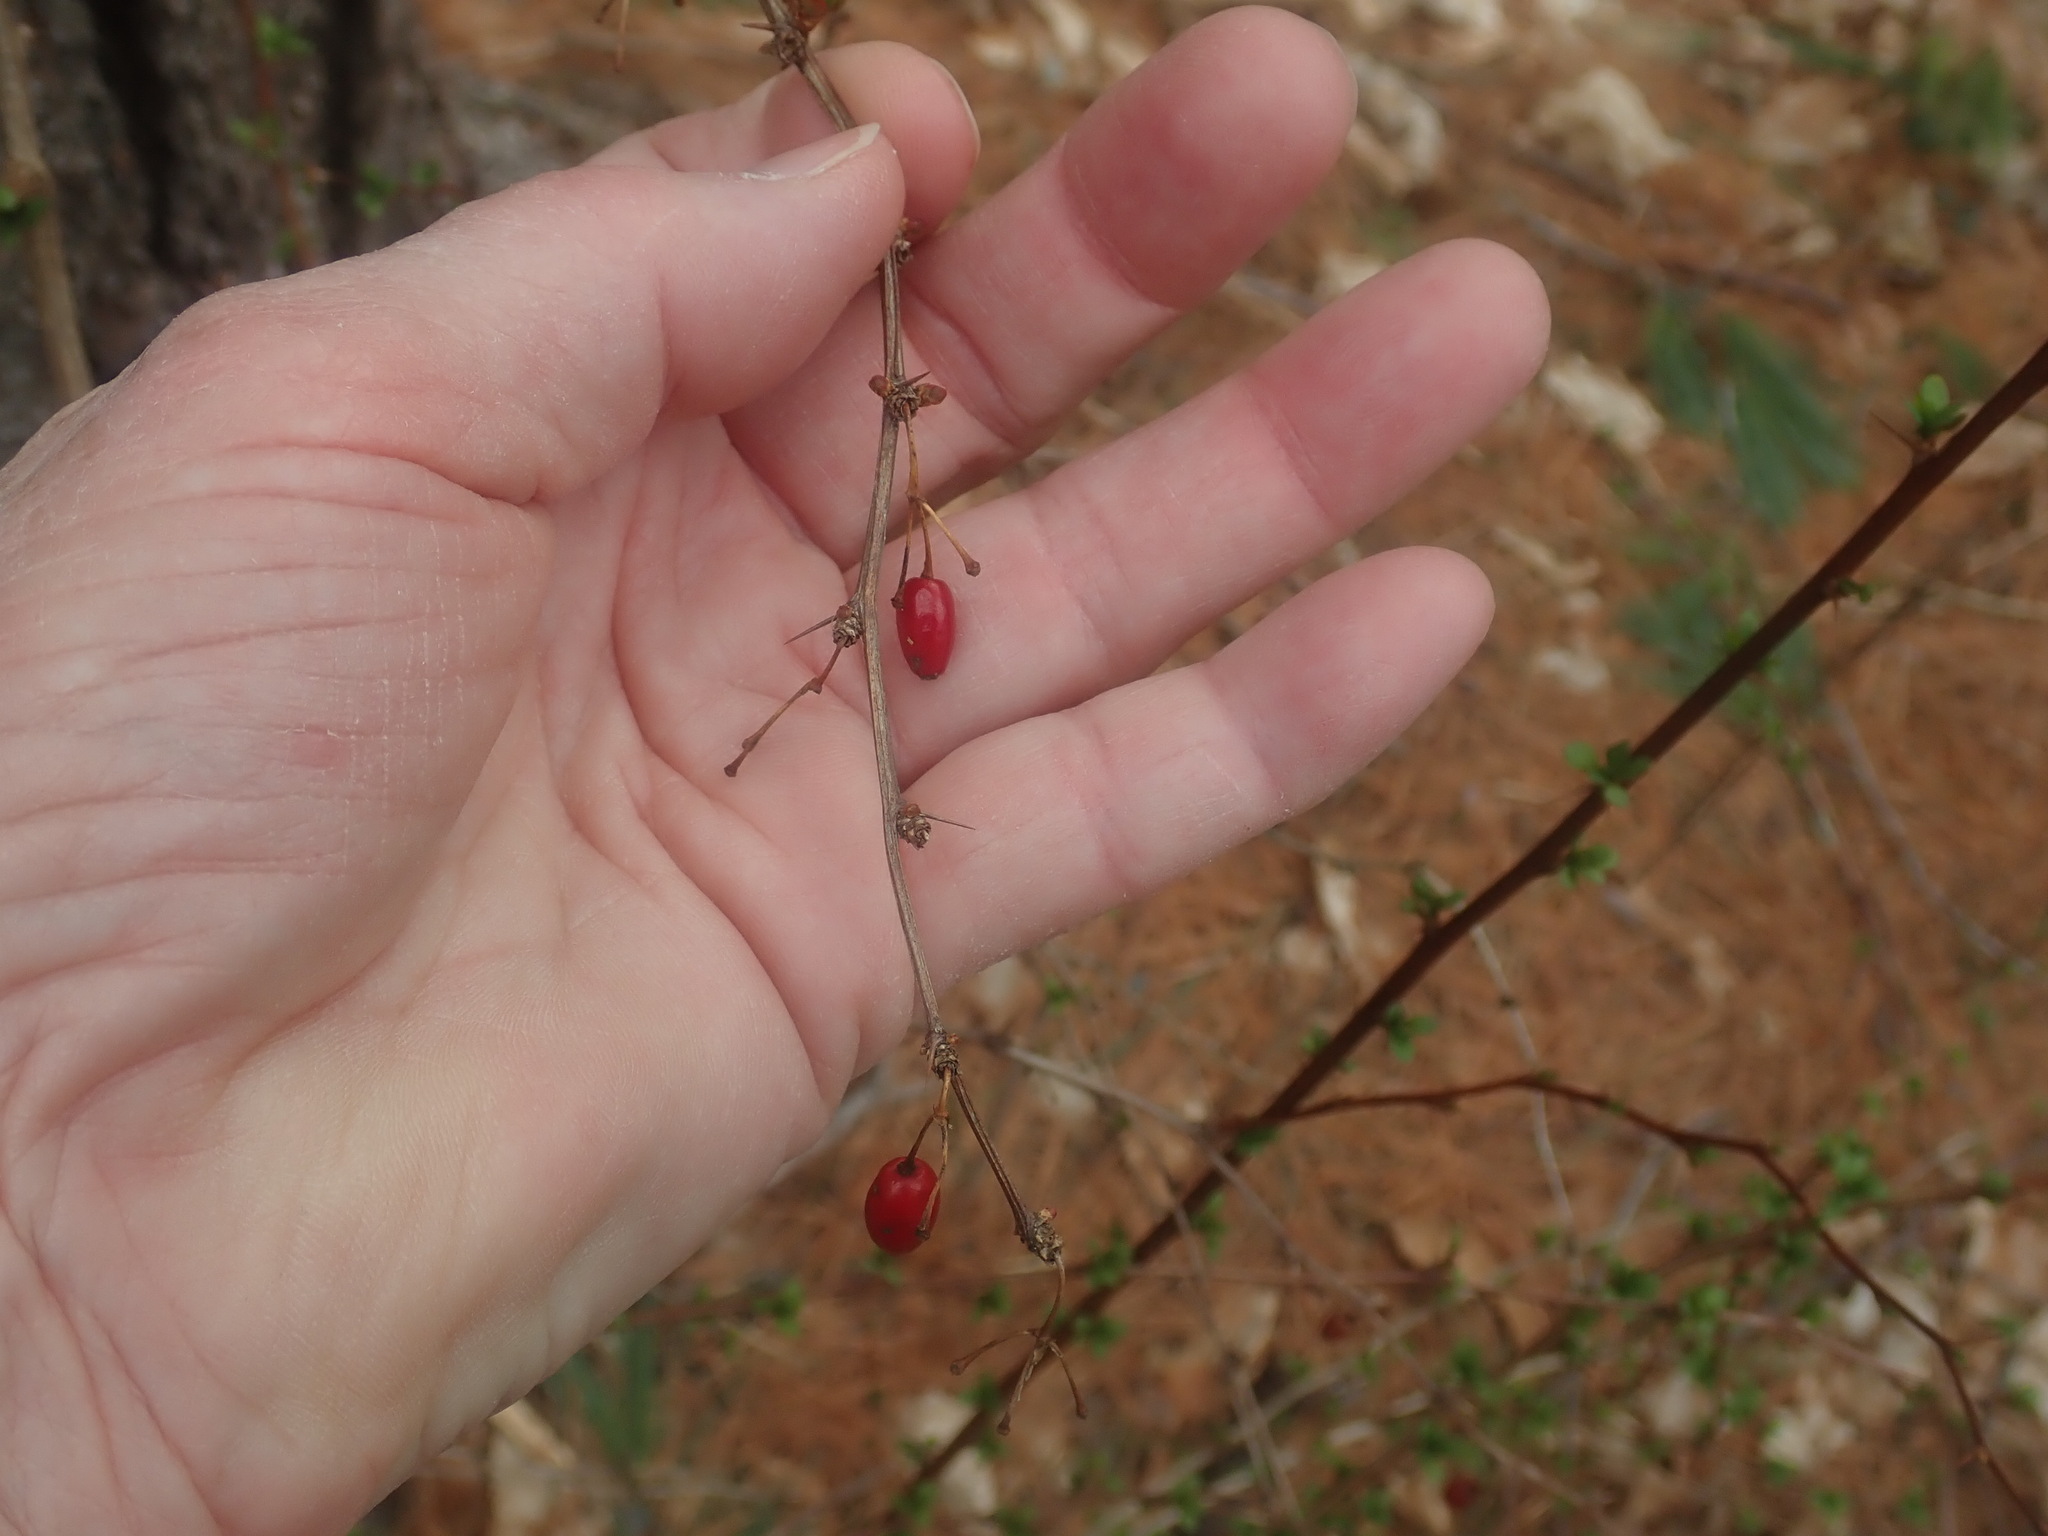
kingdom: Plantae
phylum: Tracheophyta
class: Magnoliopsida
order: Ranunculales
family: Berberidaceae
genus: Berberis
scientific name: Berberis thunbergii
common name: Japanese barberry
